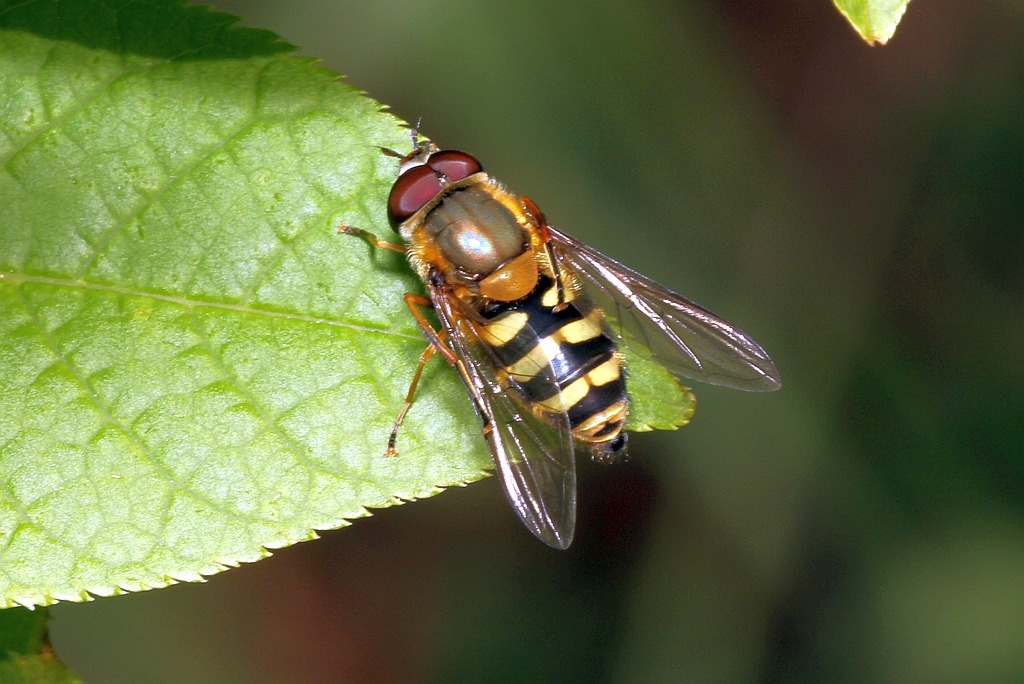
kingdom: Animalia
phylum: Arthropoda
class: Insecta
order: Diptera
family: Syrphidae
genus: Syrphus
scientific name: Syrphus
